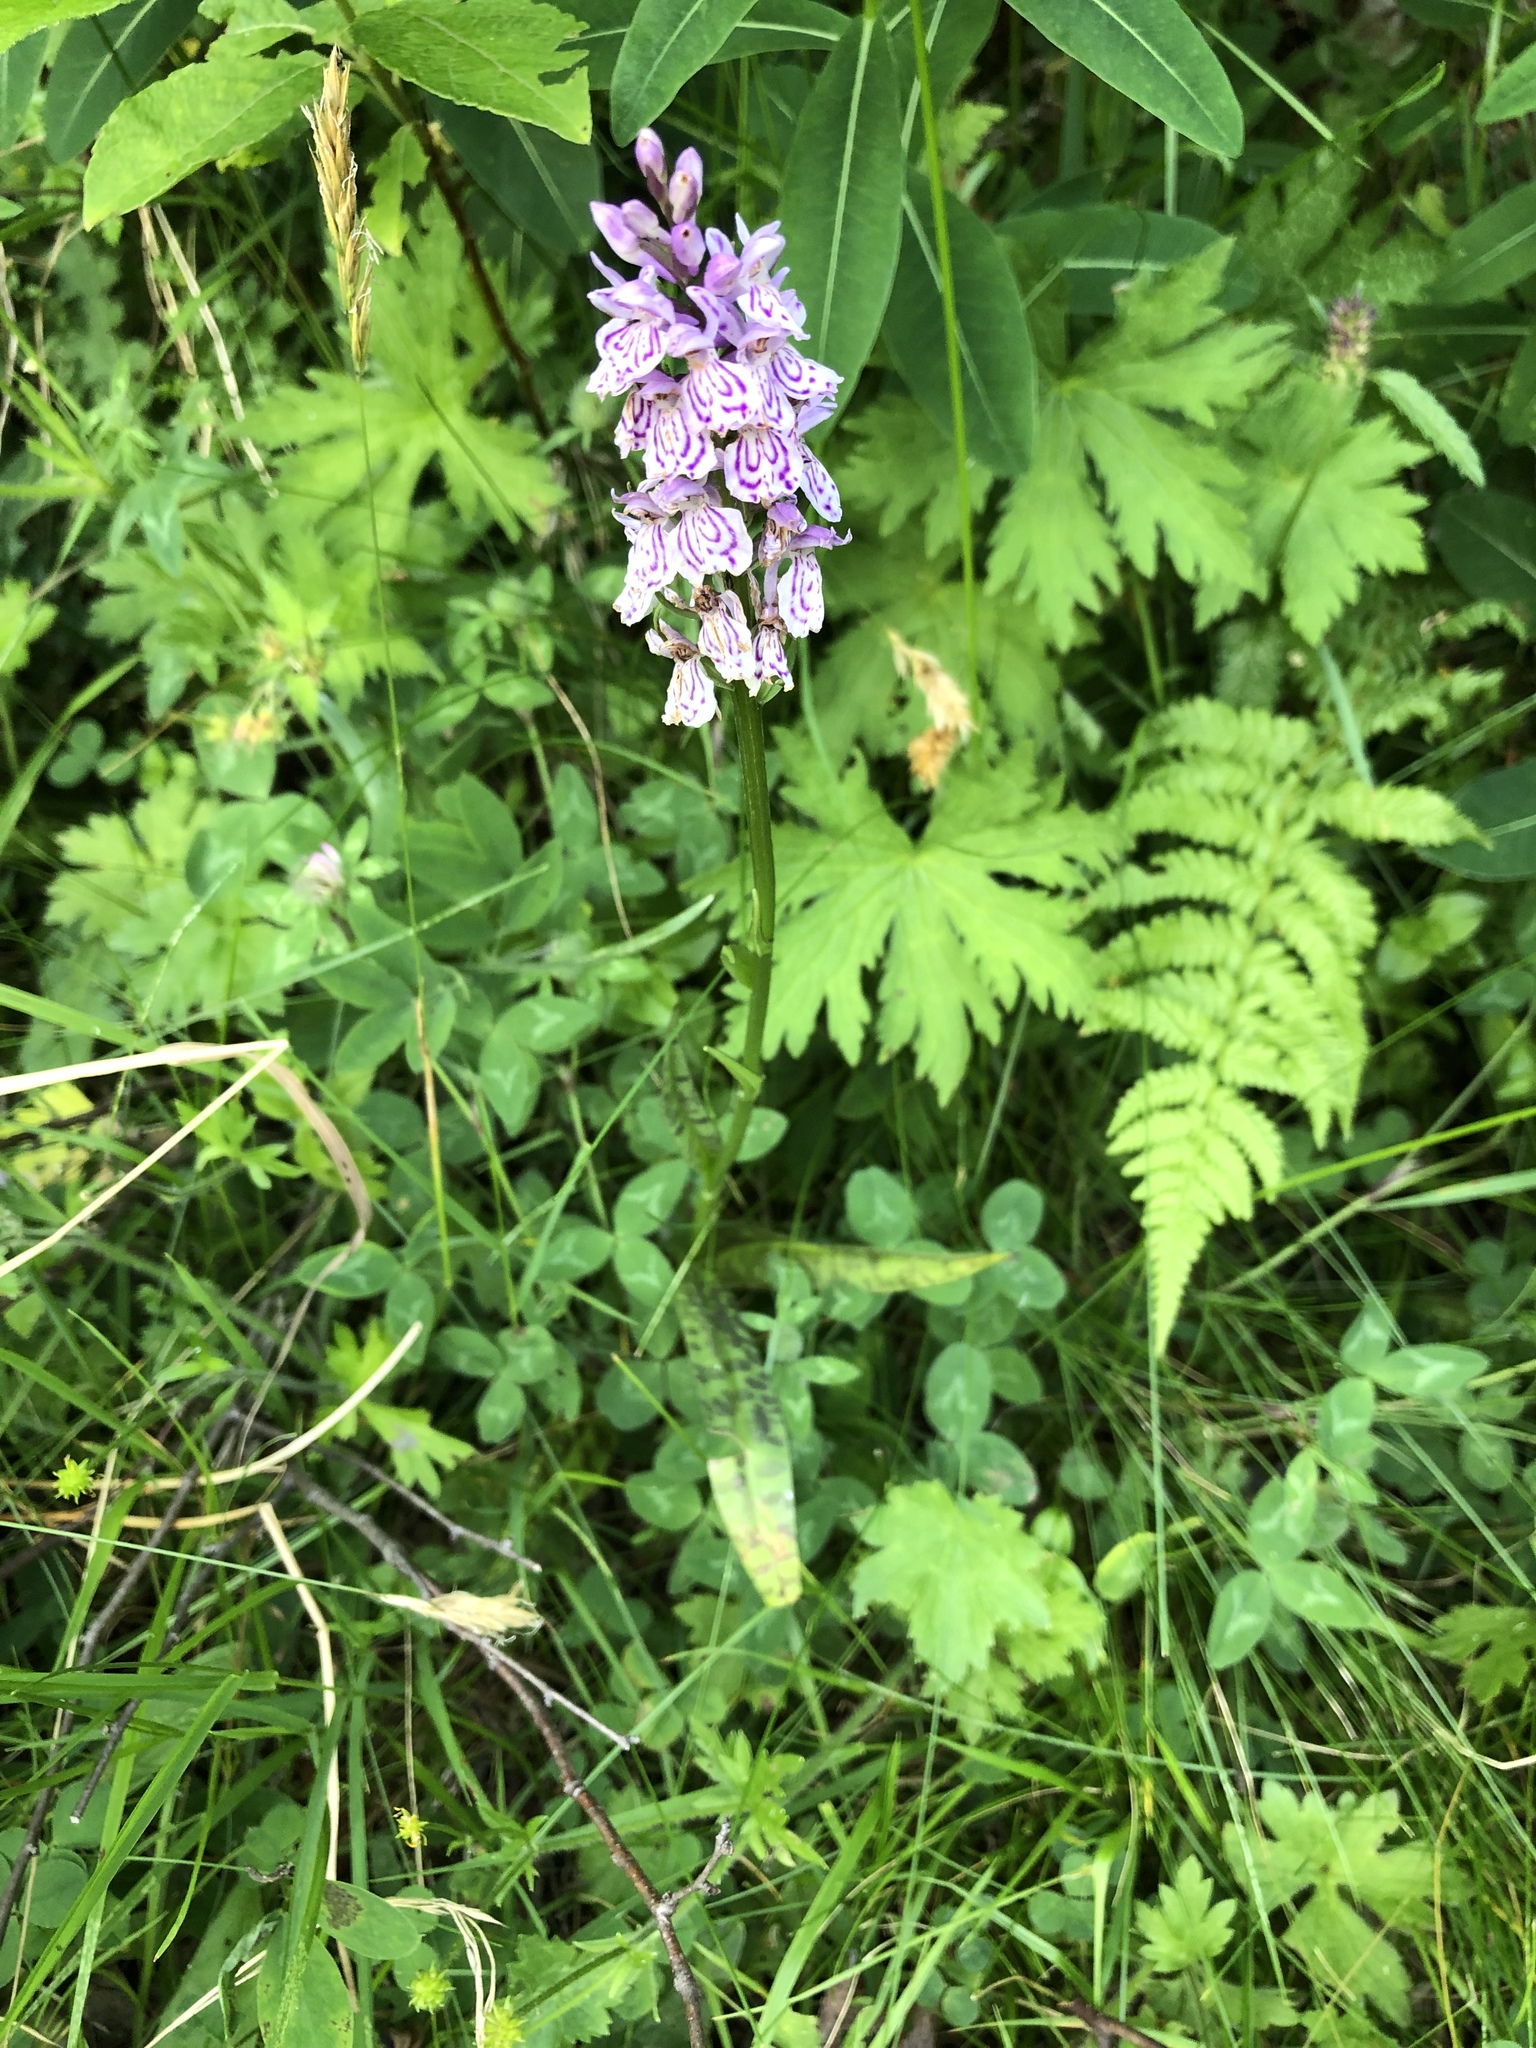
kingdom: Plantae
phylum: Tracheophyta
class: Liliopsida
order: Asparagales
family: Orchidaceae
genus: Dactylorhiza
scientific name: Dactylorhiza maculata
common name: Heath spotted-orchid
